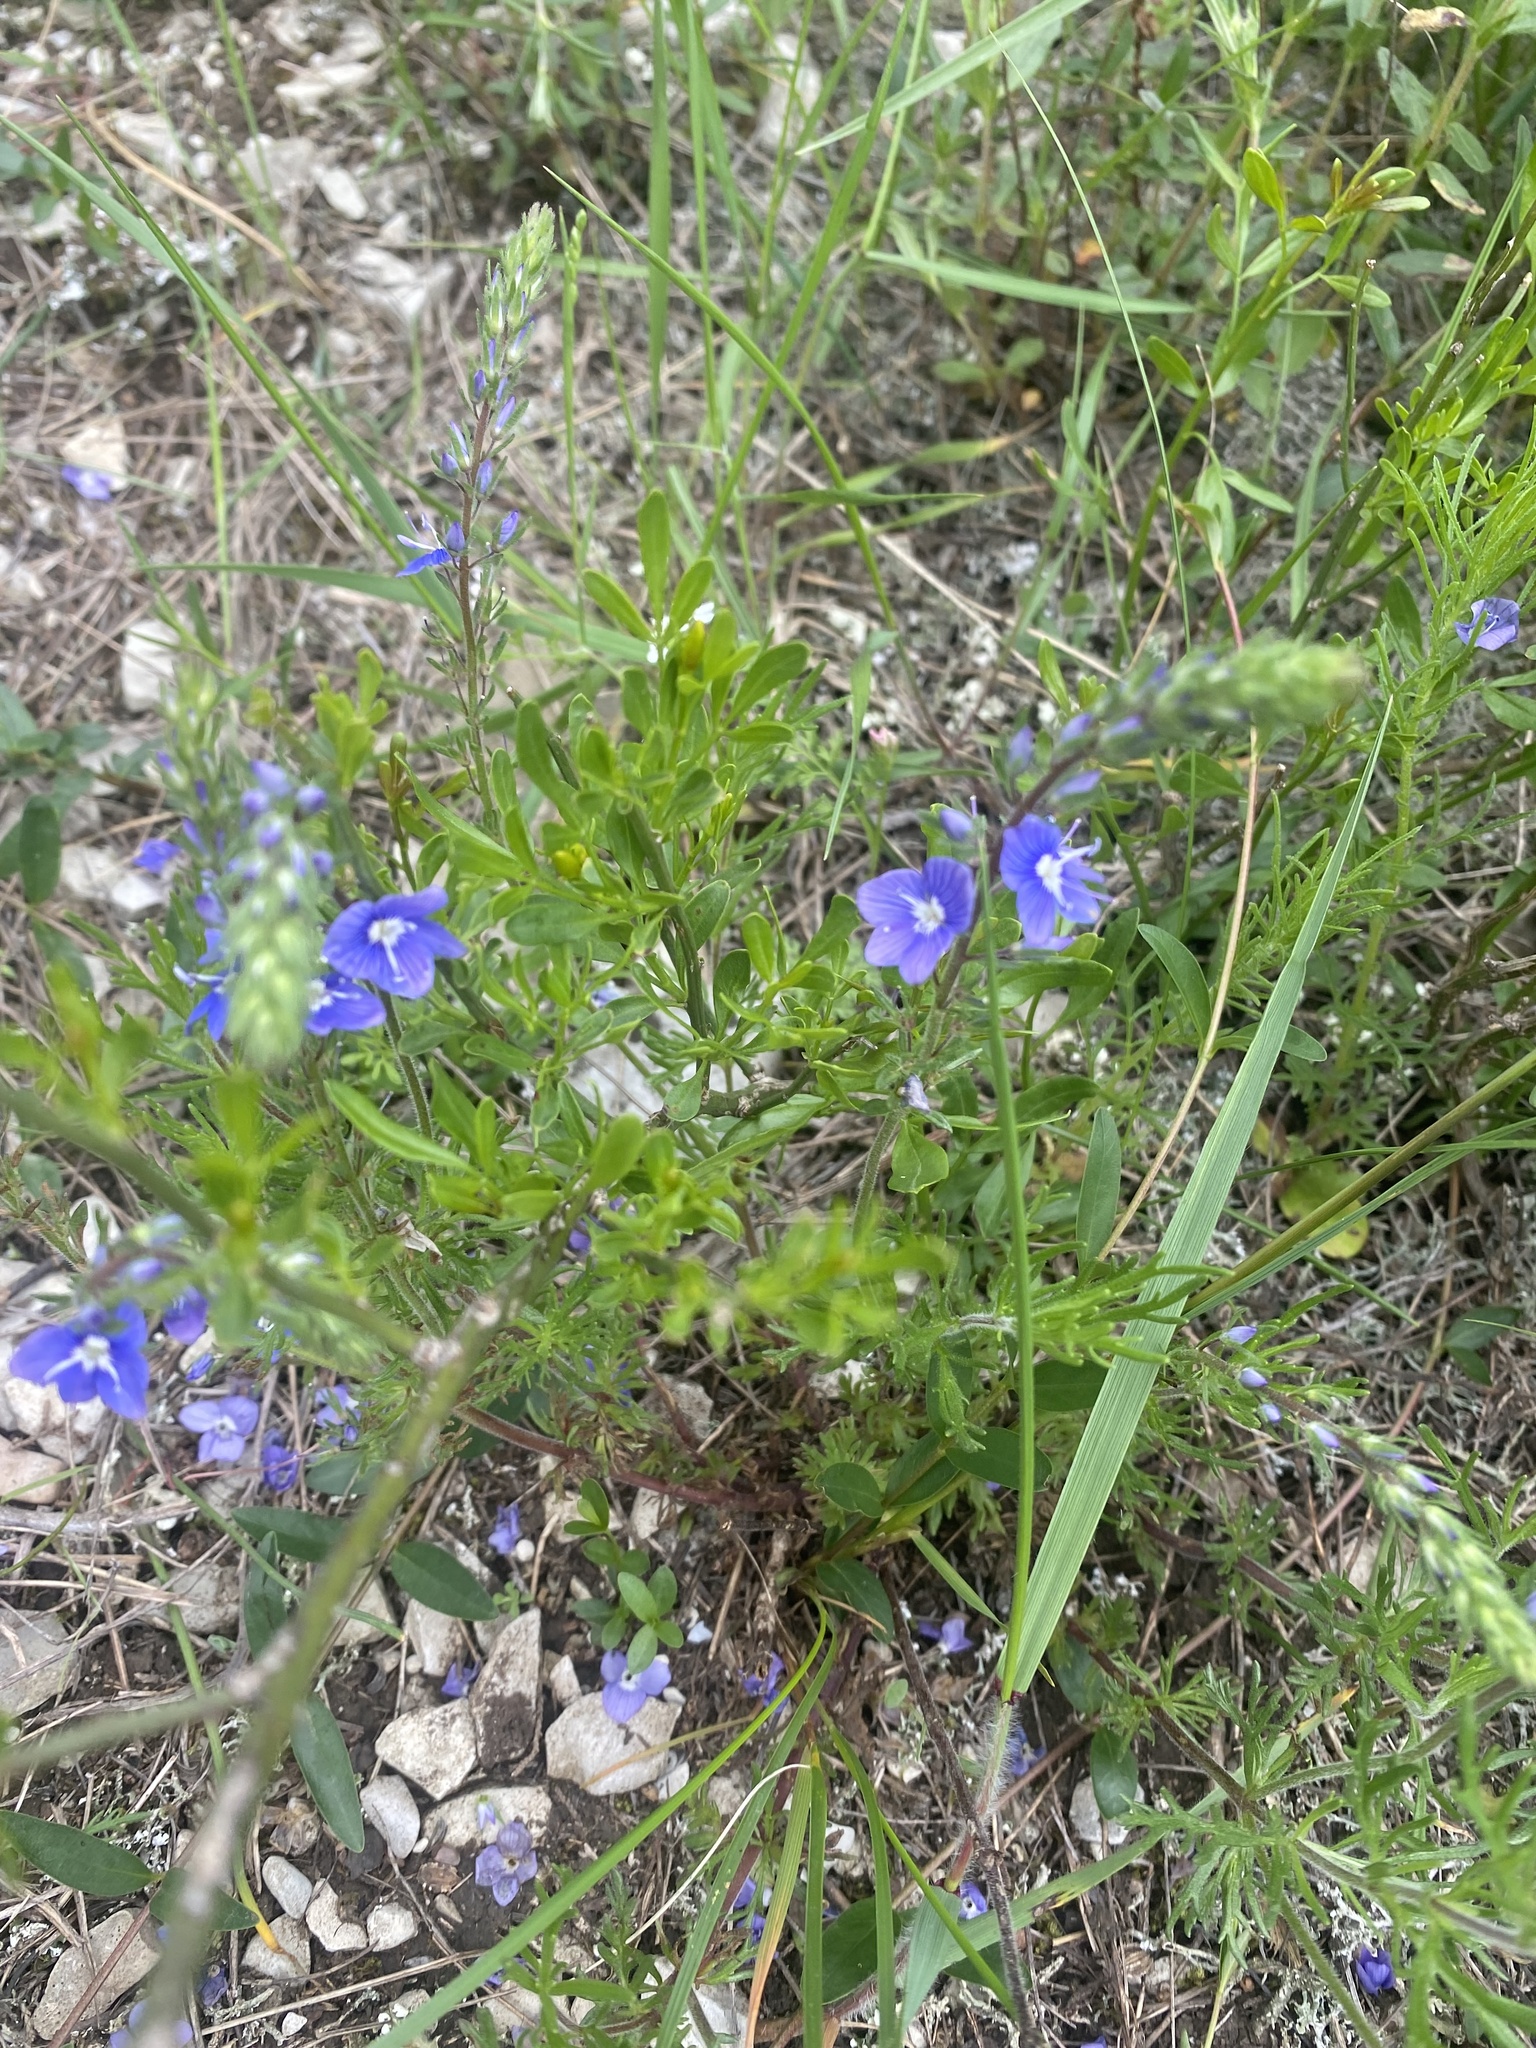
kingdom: Plantae
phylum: Tracheophyta
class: Magnoliopsida
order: Lamiales
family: Plantaginaceae
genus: Veronica
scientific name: Veronica capsellicarpa
